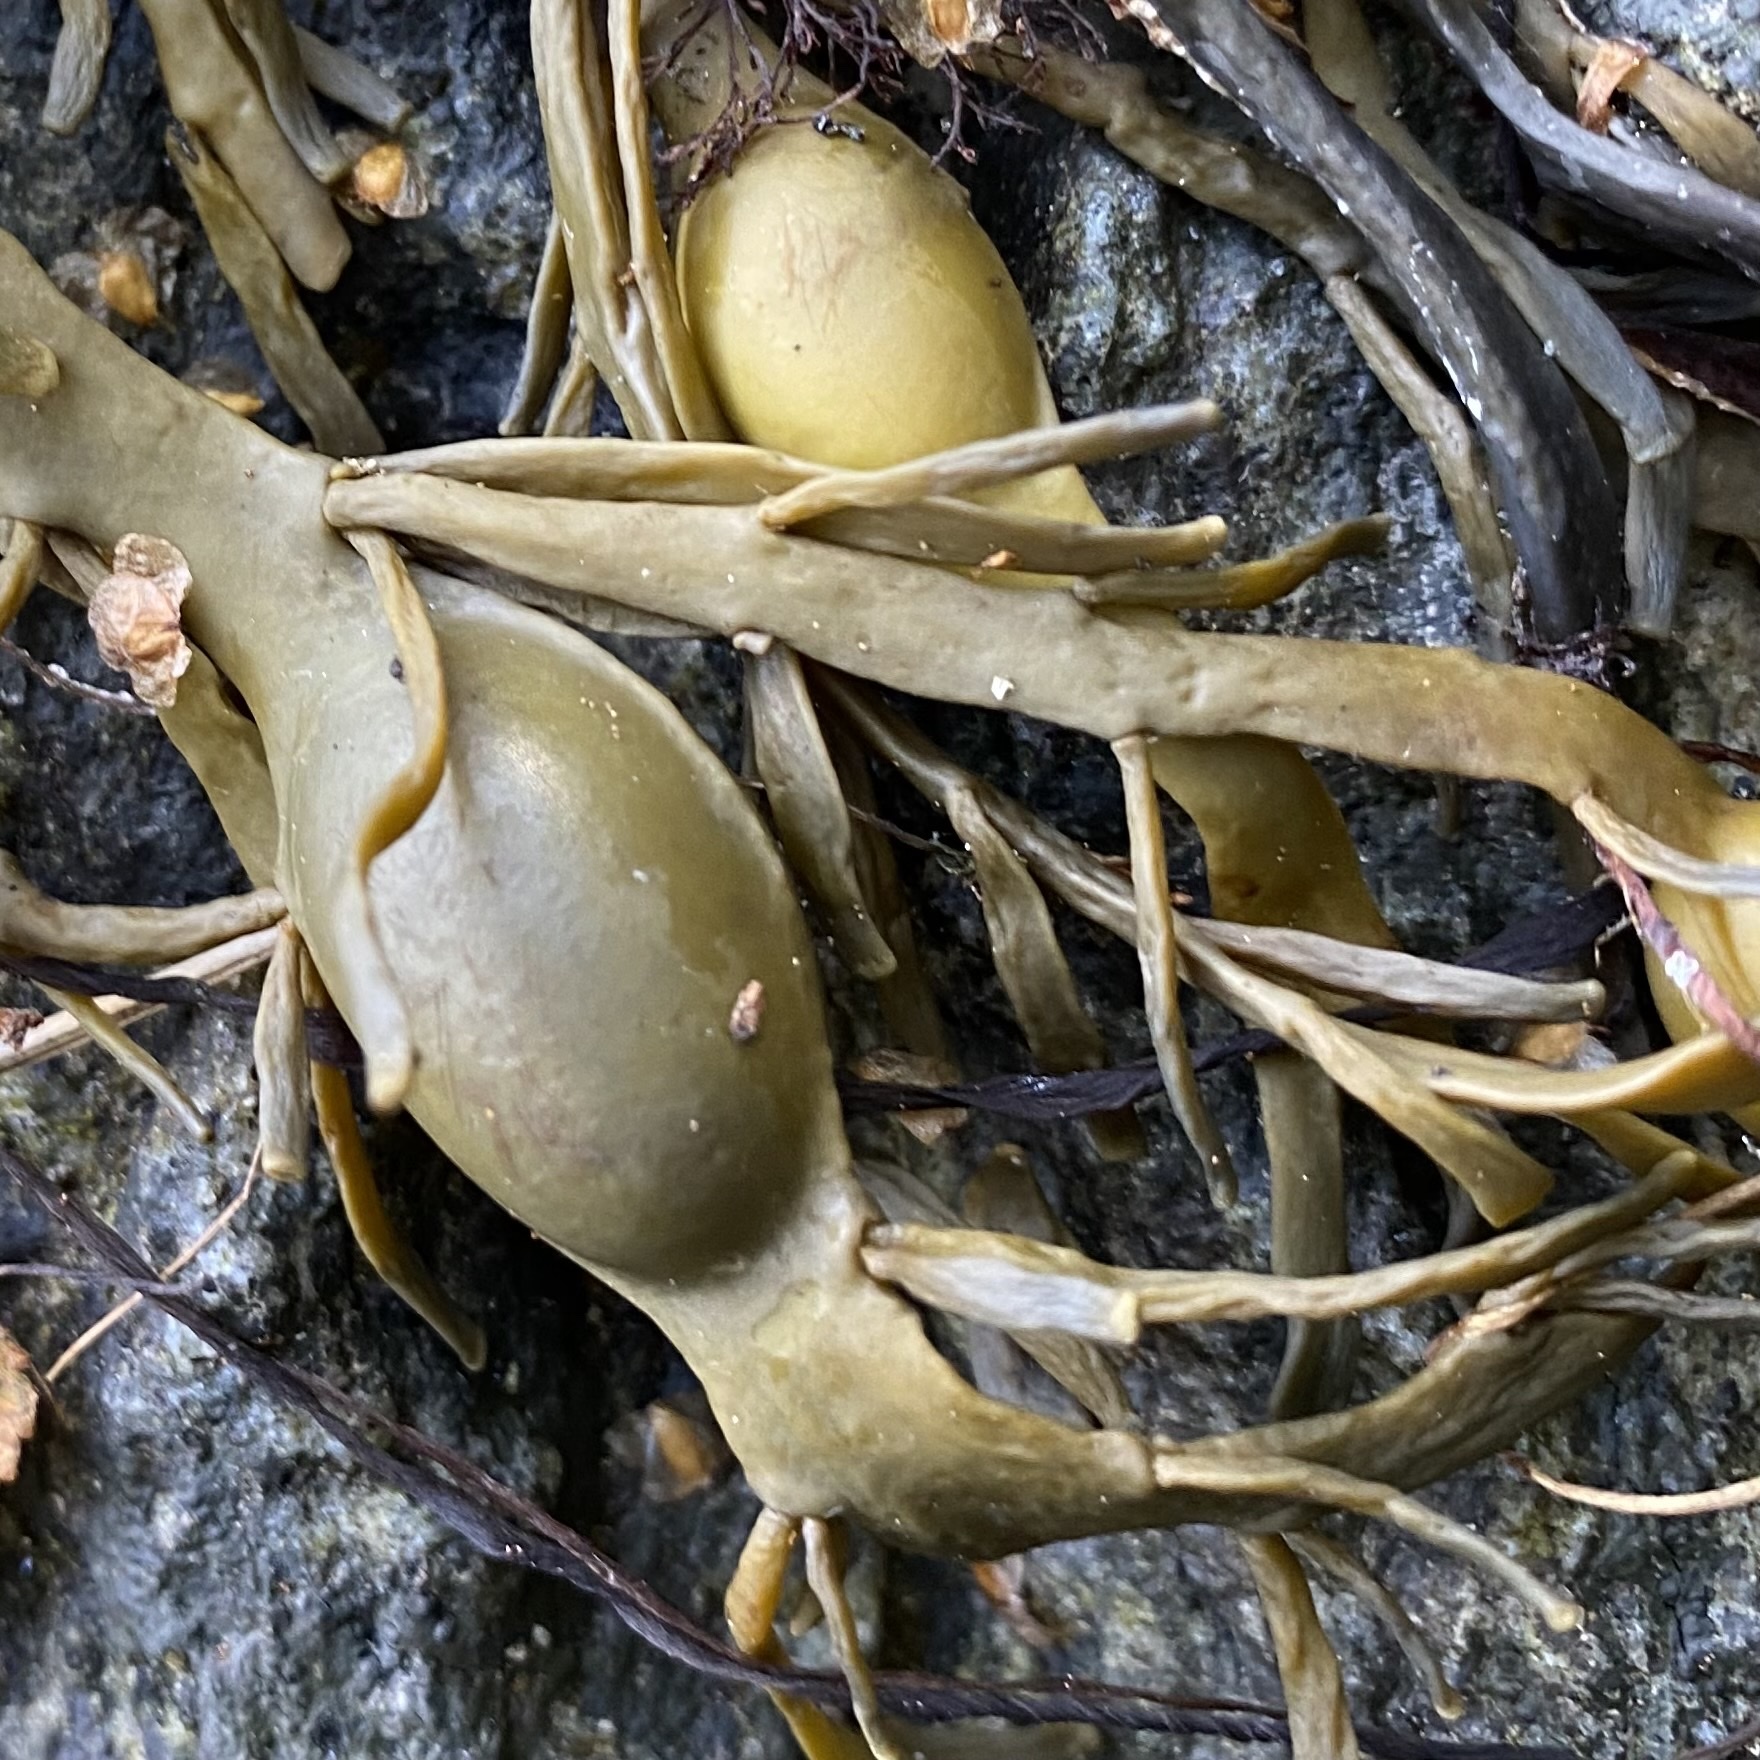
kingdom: Chromista
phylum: Ochrophyta
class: Phaeophyceae
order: Fucales
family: Fucaceae
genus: Ascophyllum
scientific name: Ascophyllum nodosum
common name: Knotted wrack
